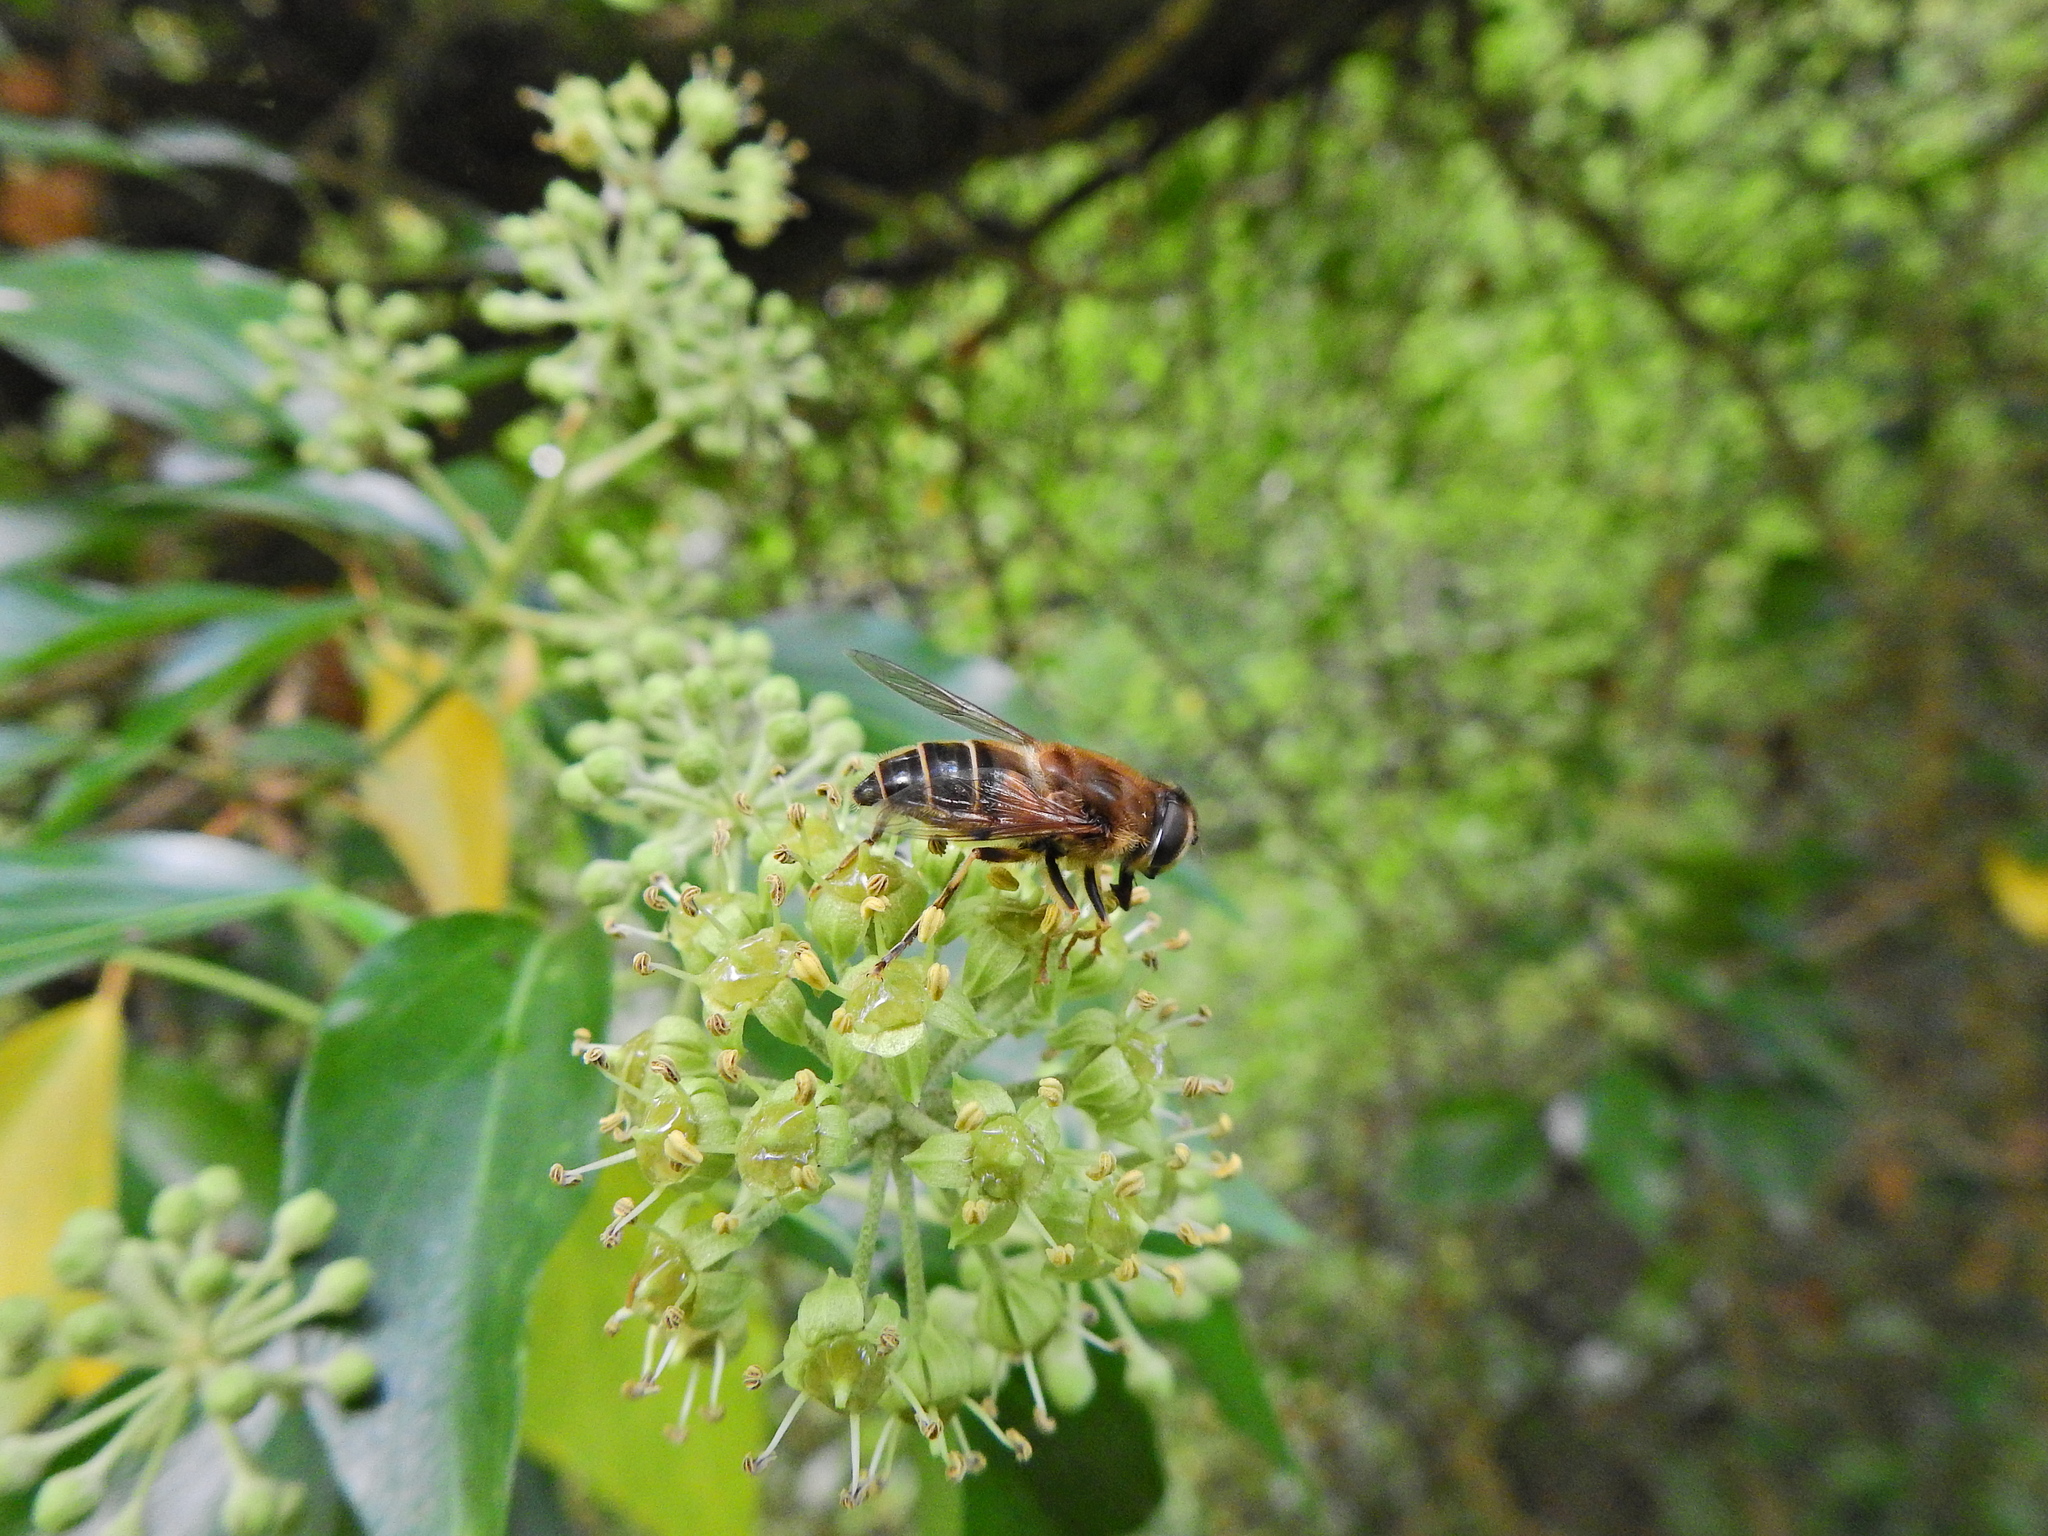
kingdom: Animalia
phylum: Arthropoda
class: Insecta
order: Diptera
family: Syrphidae
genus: Eristalis
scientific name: Eristalis pertinax
